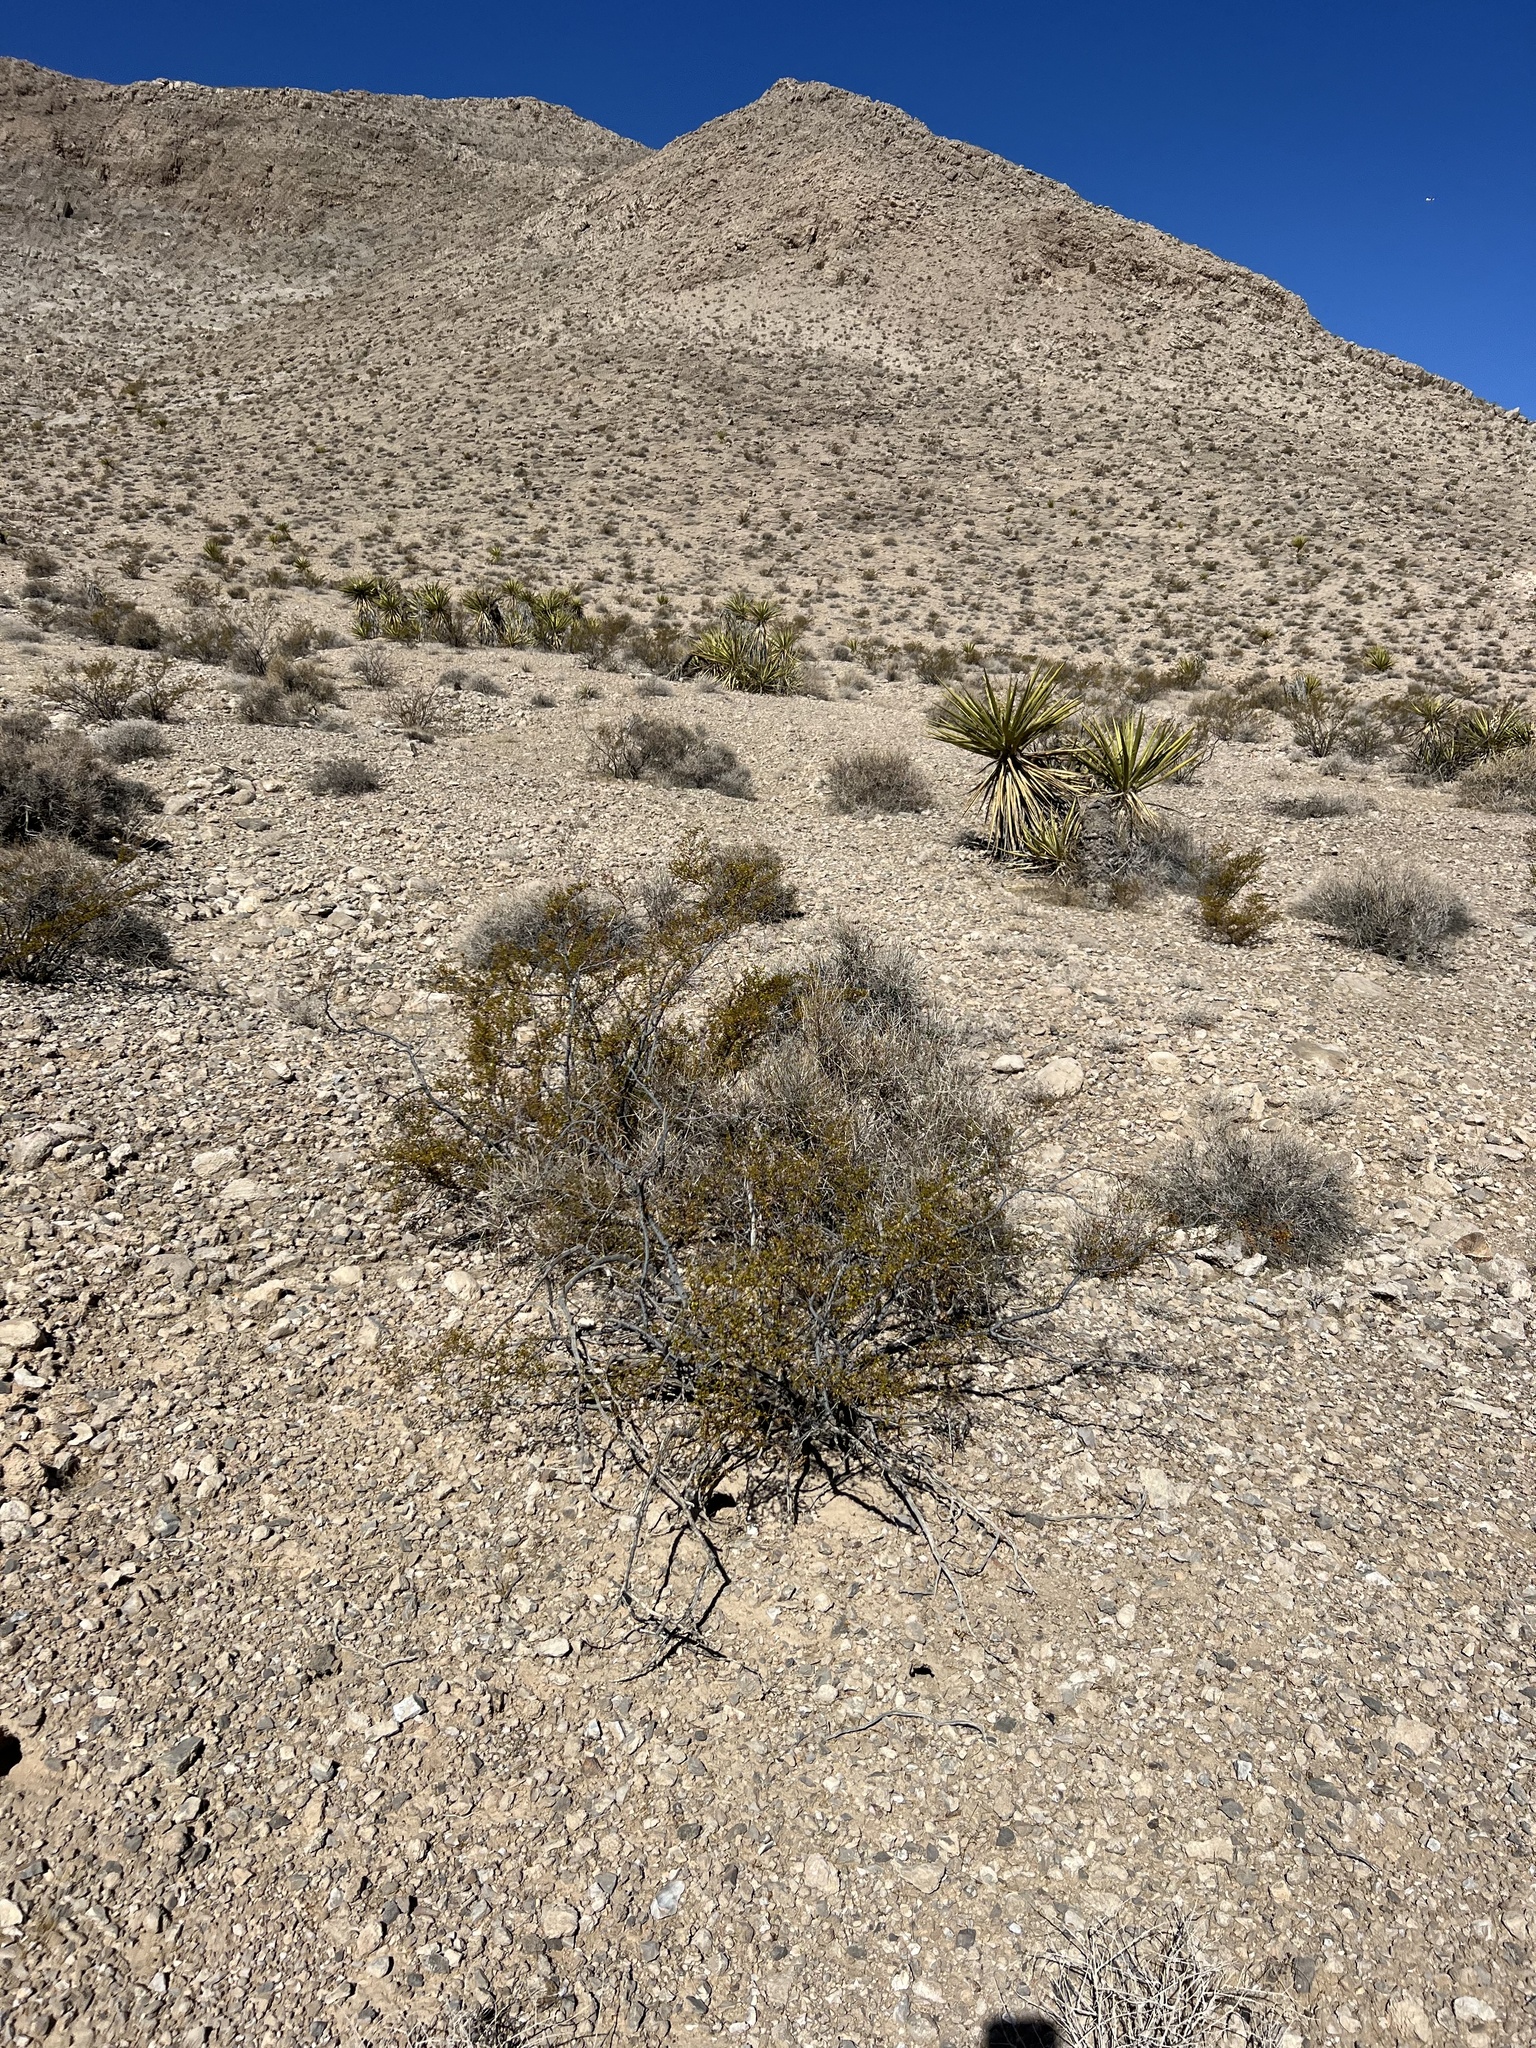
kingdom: Plantae
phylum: Tracheophyta
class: Magnoliopsida
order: Zygophyllales
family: Zygophyllaceae
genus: Larrea
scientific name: Larrea tridentata
